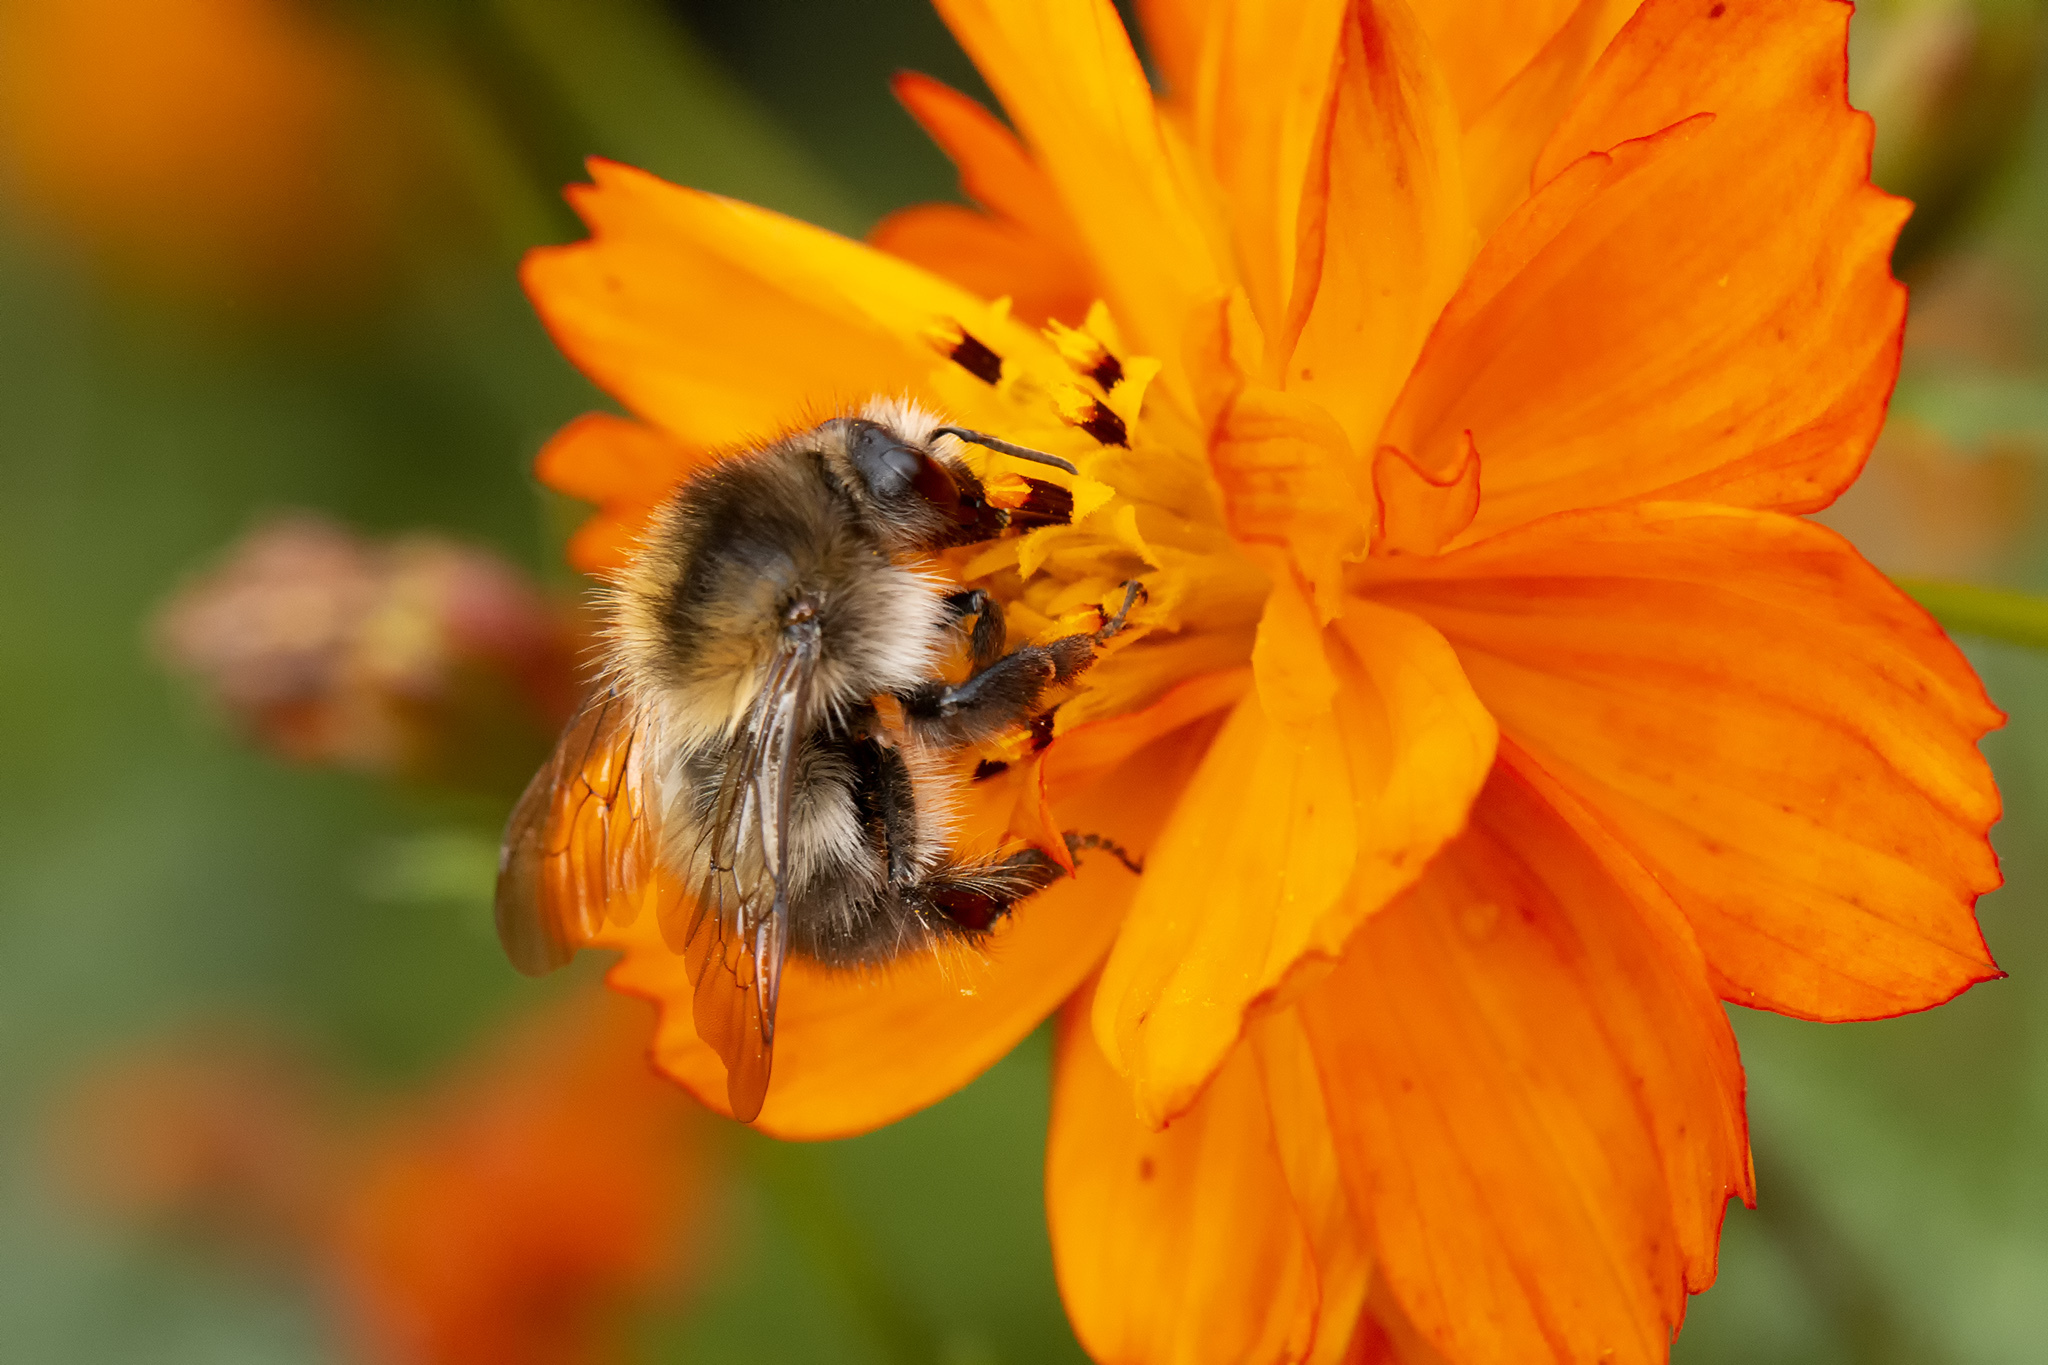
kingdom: Animalia
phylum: Arthropoda
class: Insecta
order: Hymenoptera
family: Apidae
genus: Bombus
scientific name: Bombus pascuorum
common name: Common carder bee
